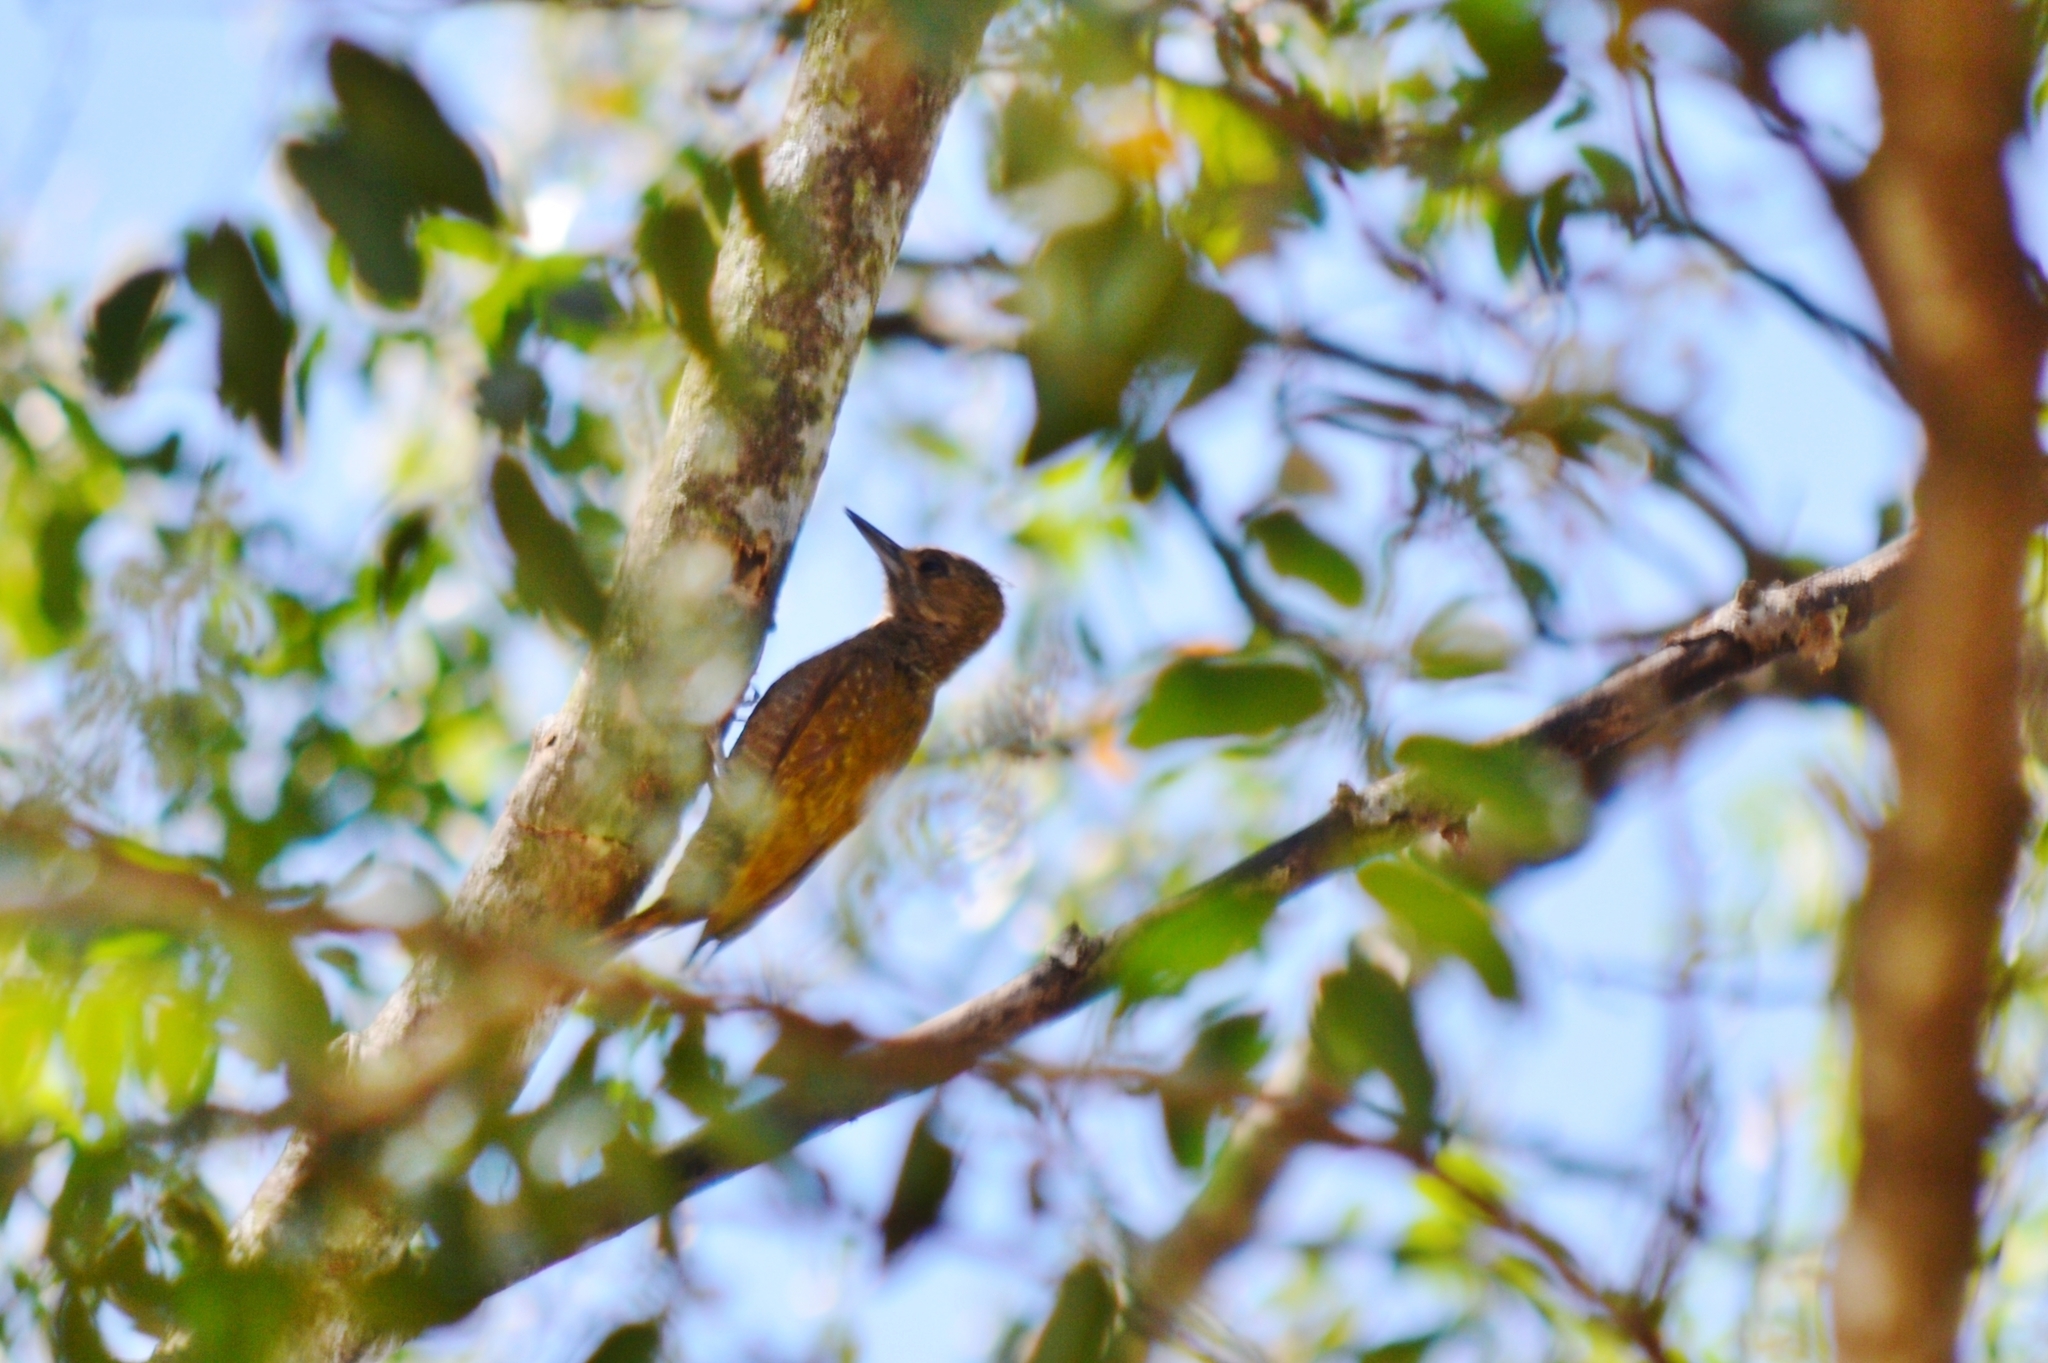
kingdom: Animalia
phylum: Chordata
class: Aves
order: Piciformes
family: Picidae
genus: Veniliornis
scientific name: Veniliornis passerinus
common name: Little woodpecker
